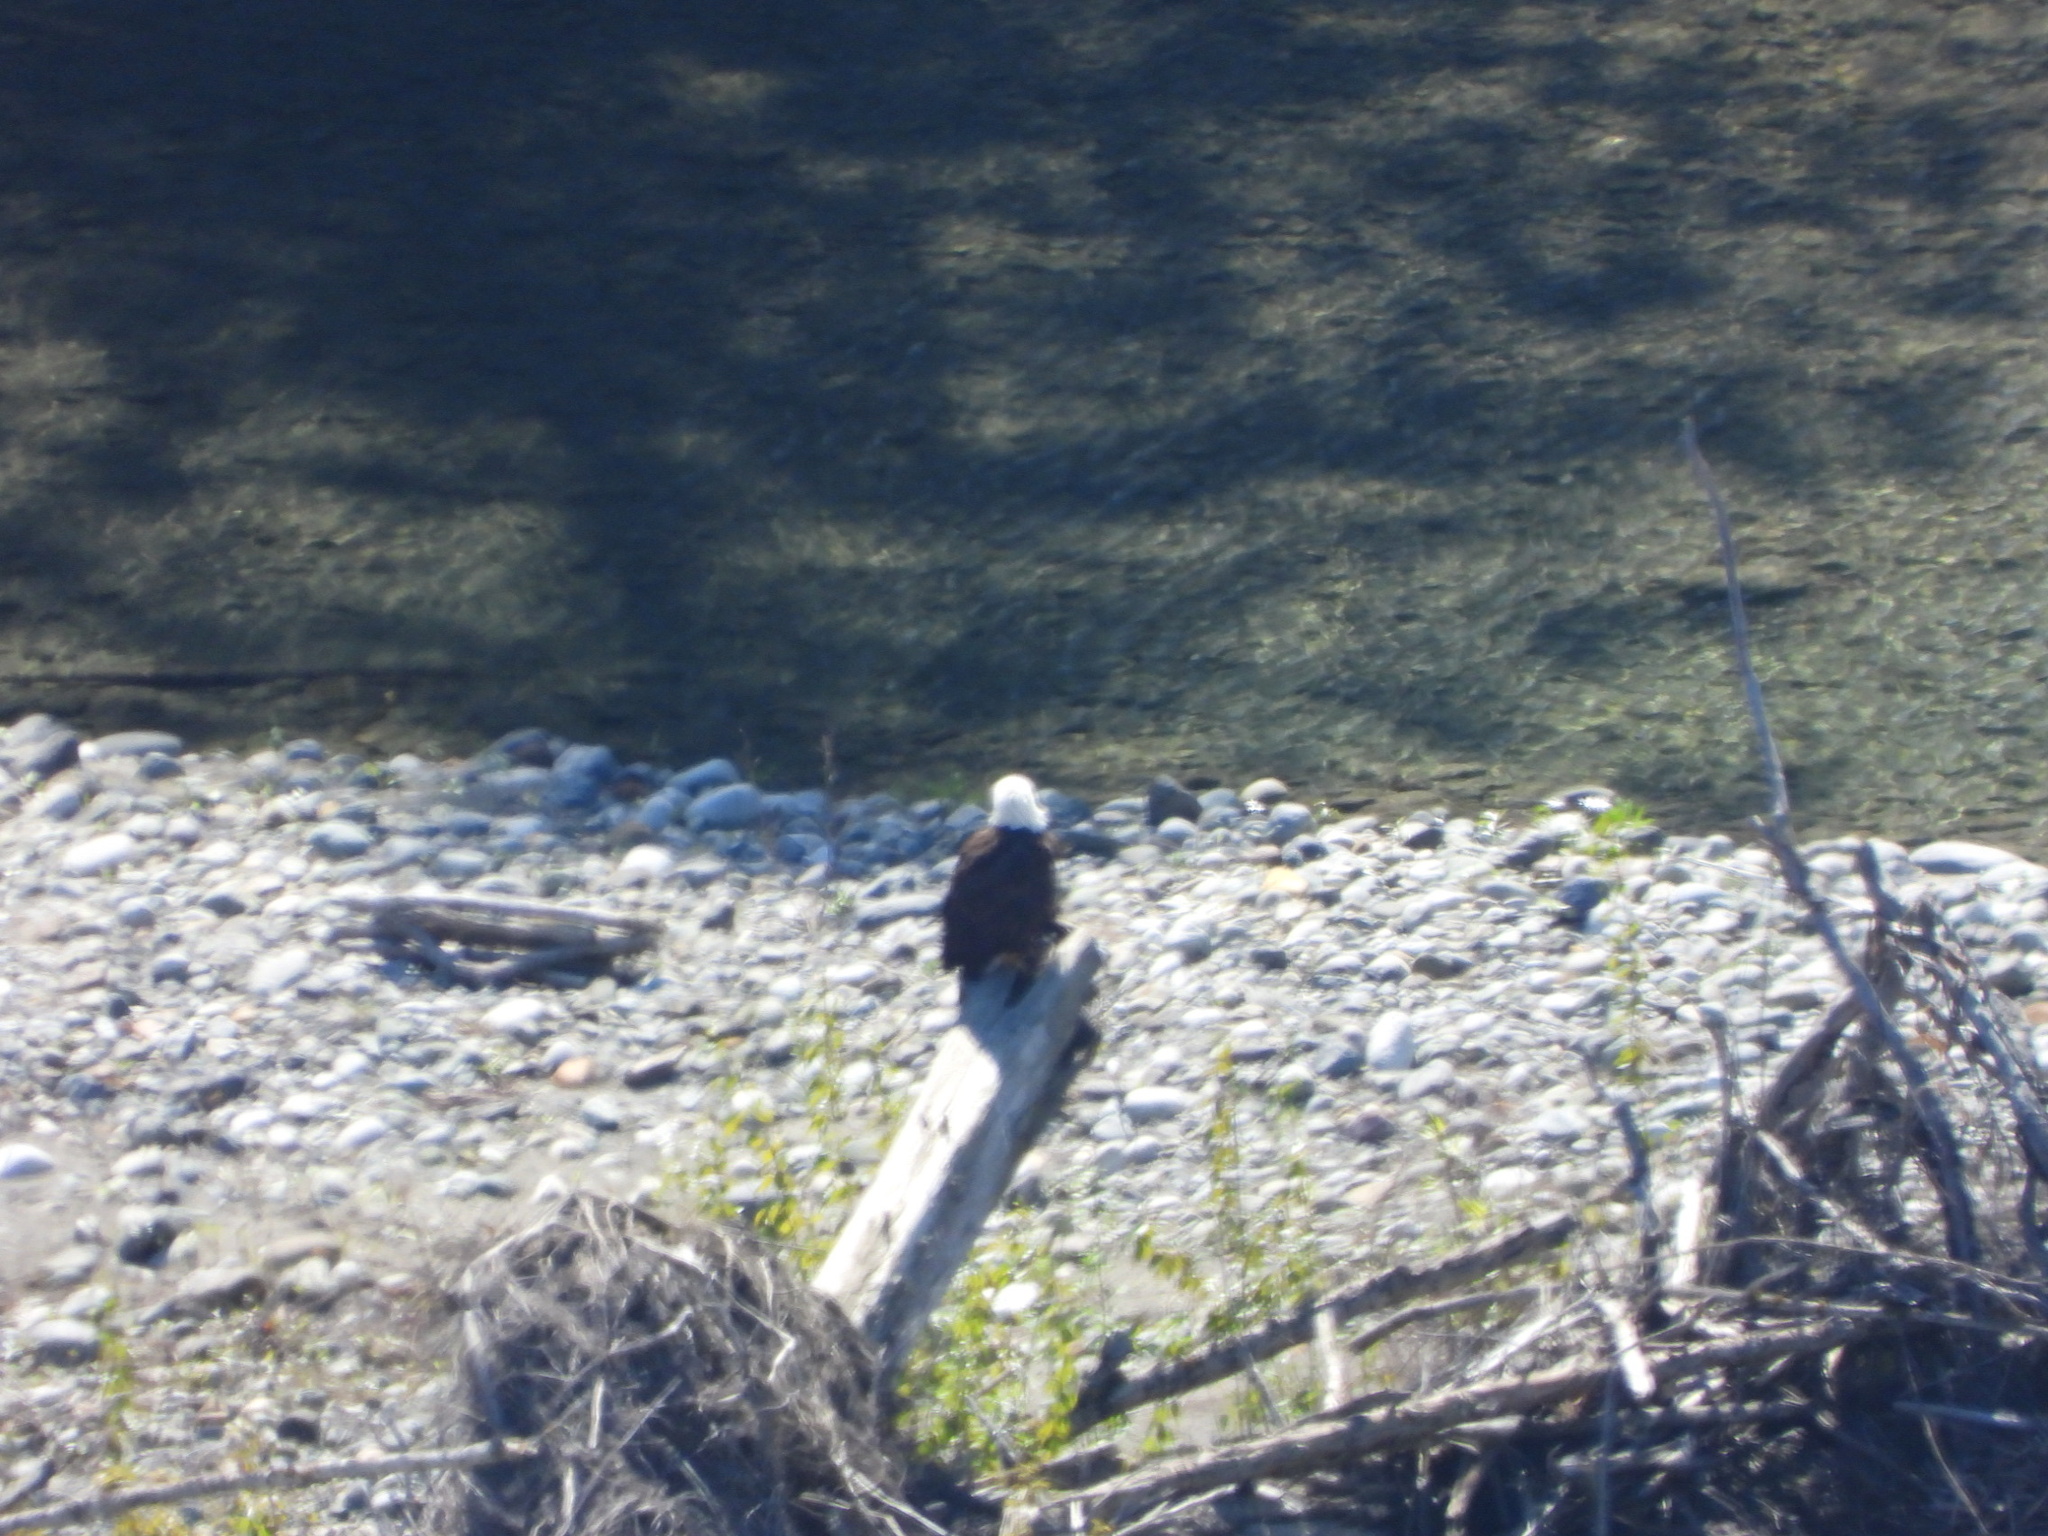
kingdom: Animalia
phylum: Chordata
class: Aves
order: Accipitriformes
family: Accipitridae
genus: Haliaeetus
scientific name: Haliaeetus leucocephalus
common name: Bald eagle
